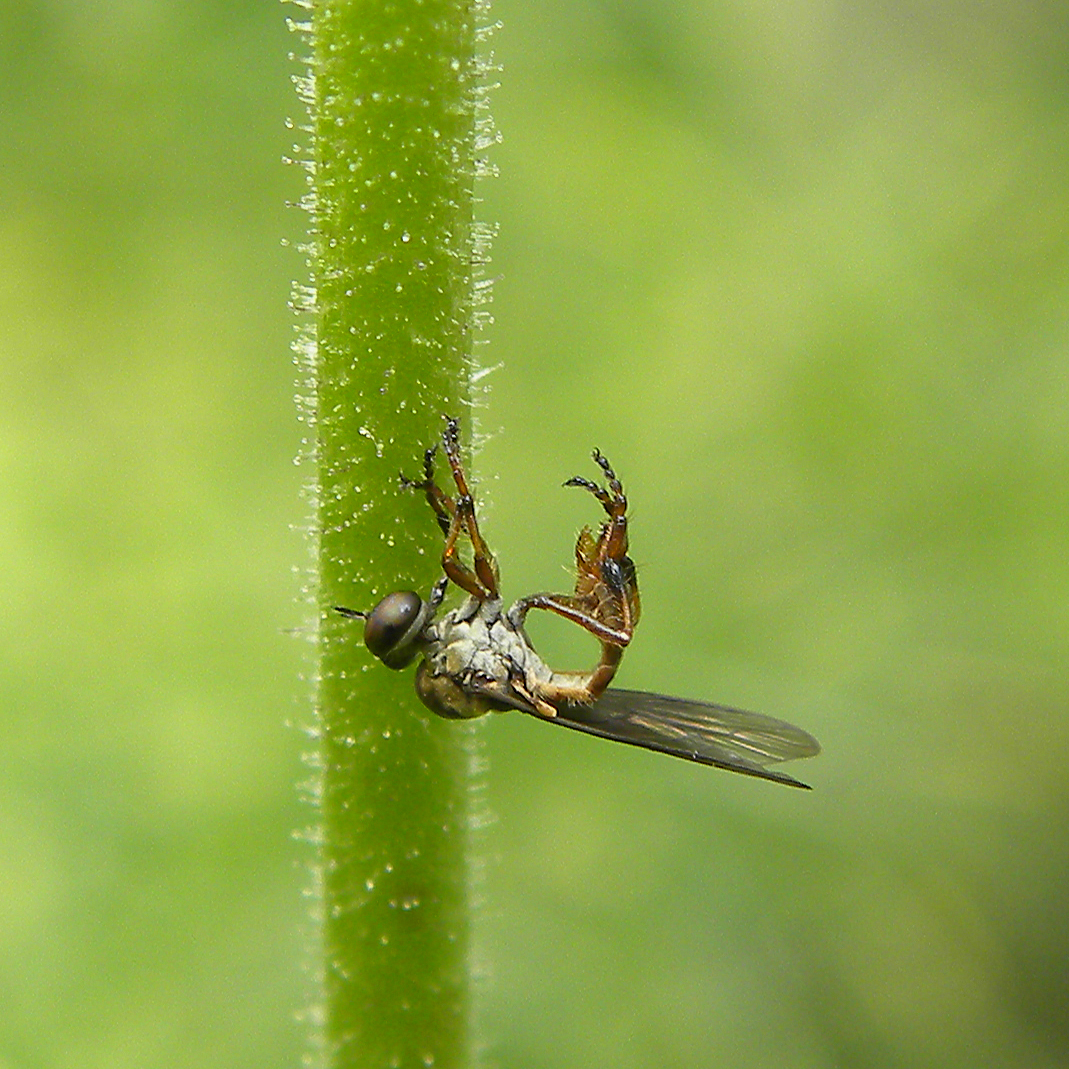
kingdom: Animalia
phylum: Arthropoda
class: Insecta
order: Diptera
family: Asilidae
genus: Holcocephala
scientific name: Holcocephala
